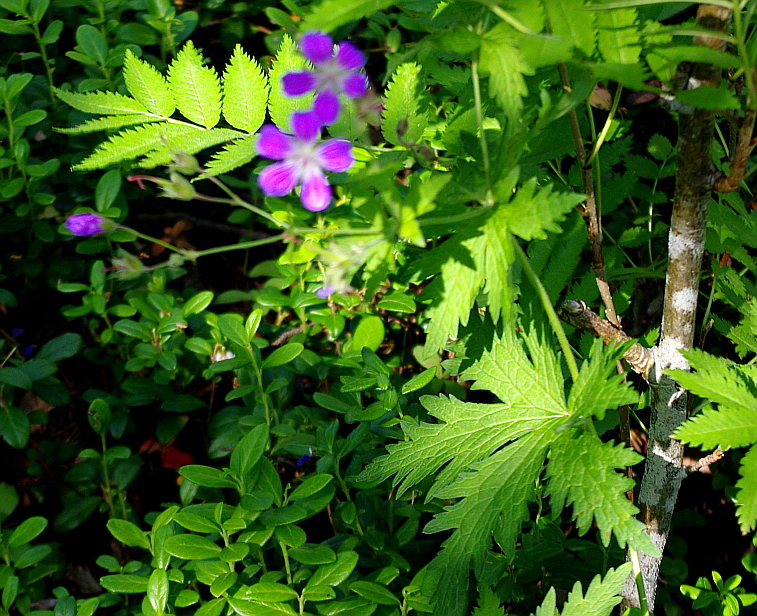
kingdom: Plantae
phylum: Tracheophyta
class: Magnoliopsida
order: Geraniales
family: Geraniaceae
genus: Geranium
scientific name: Geranium sylvaticum
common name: Wood crane's-bill
